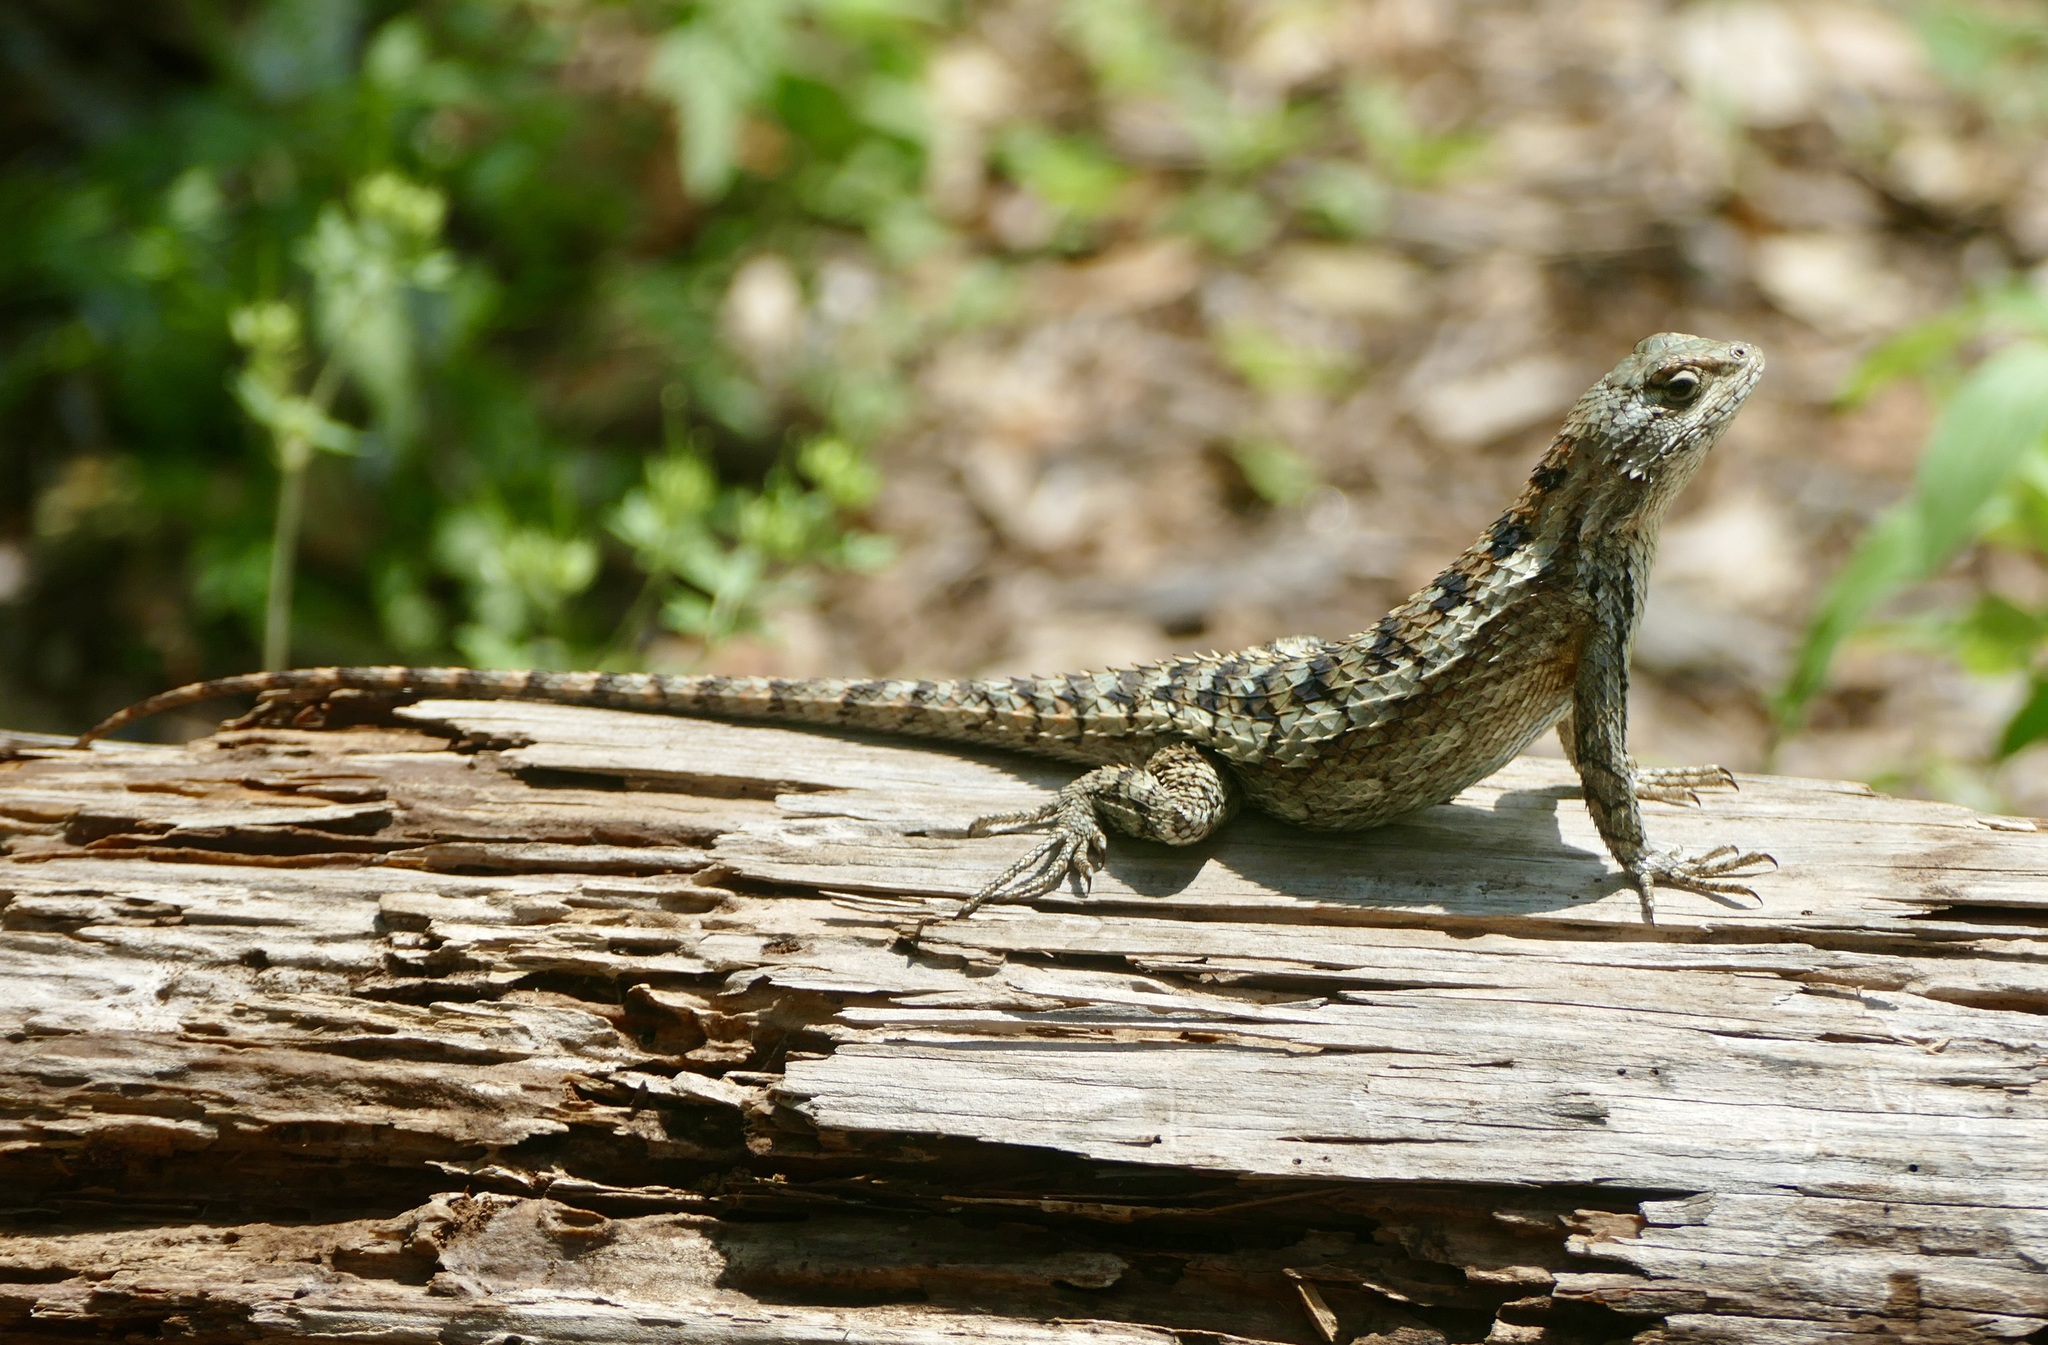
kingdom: Animalia
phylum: Chordata
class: Squamata
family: Phrynosomatidae
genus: Sceloporus
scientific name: Sceloporus olivaceus
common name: Texas spiny lizard
